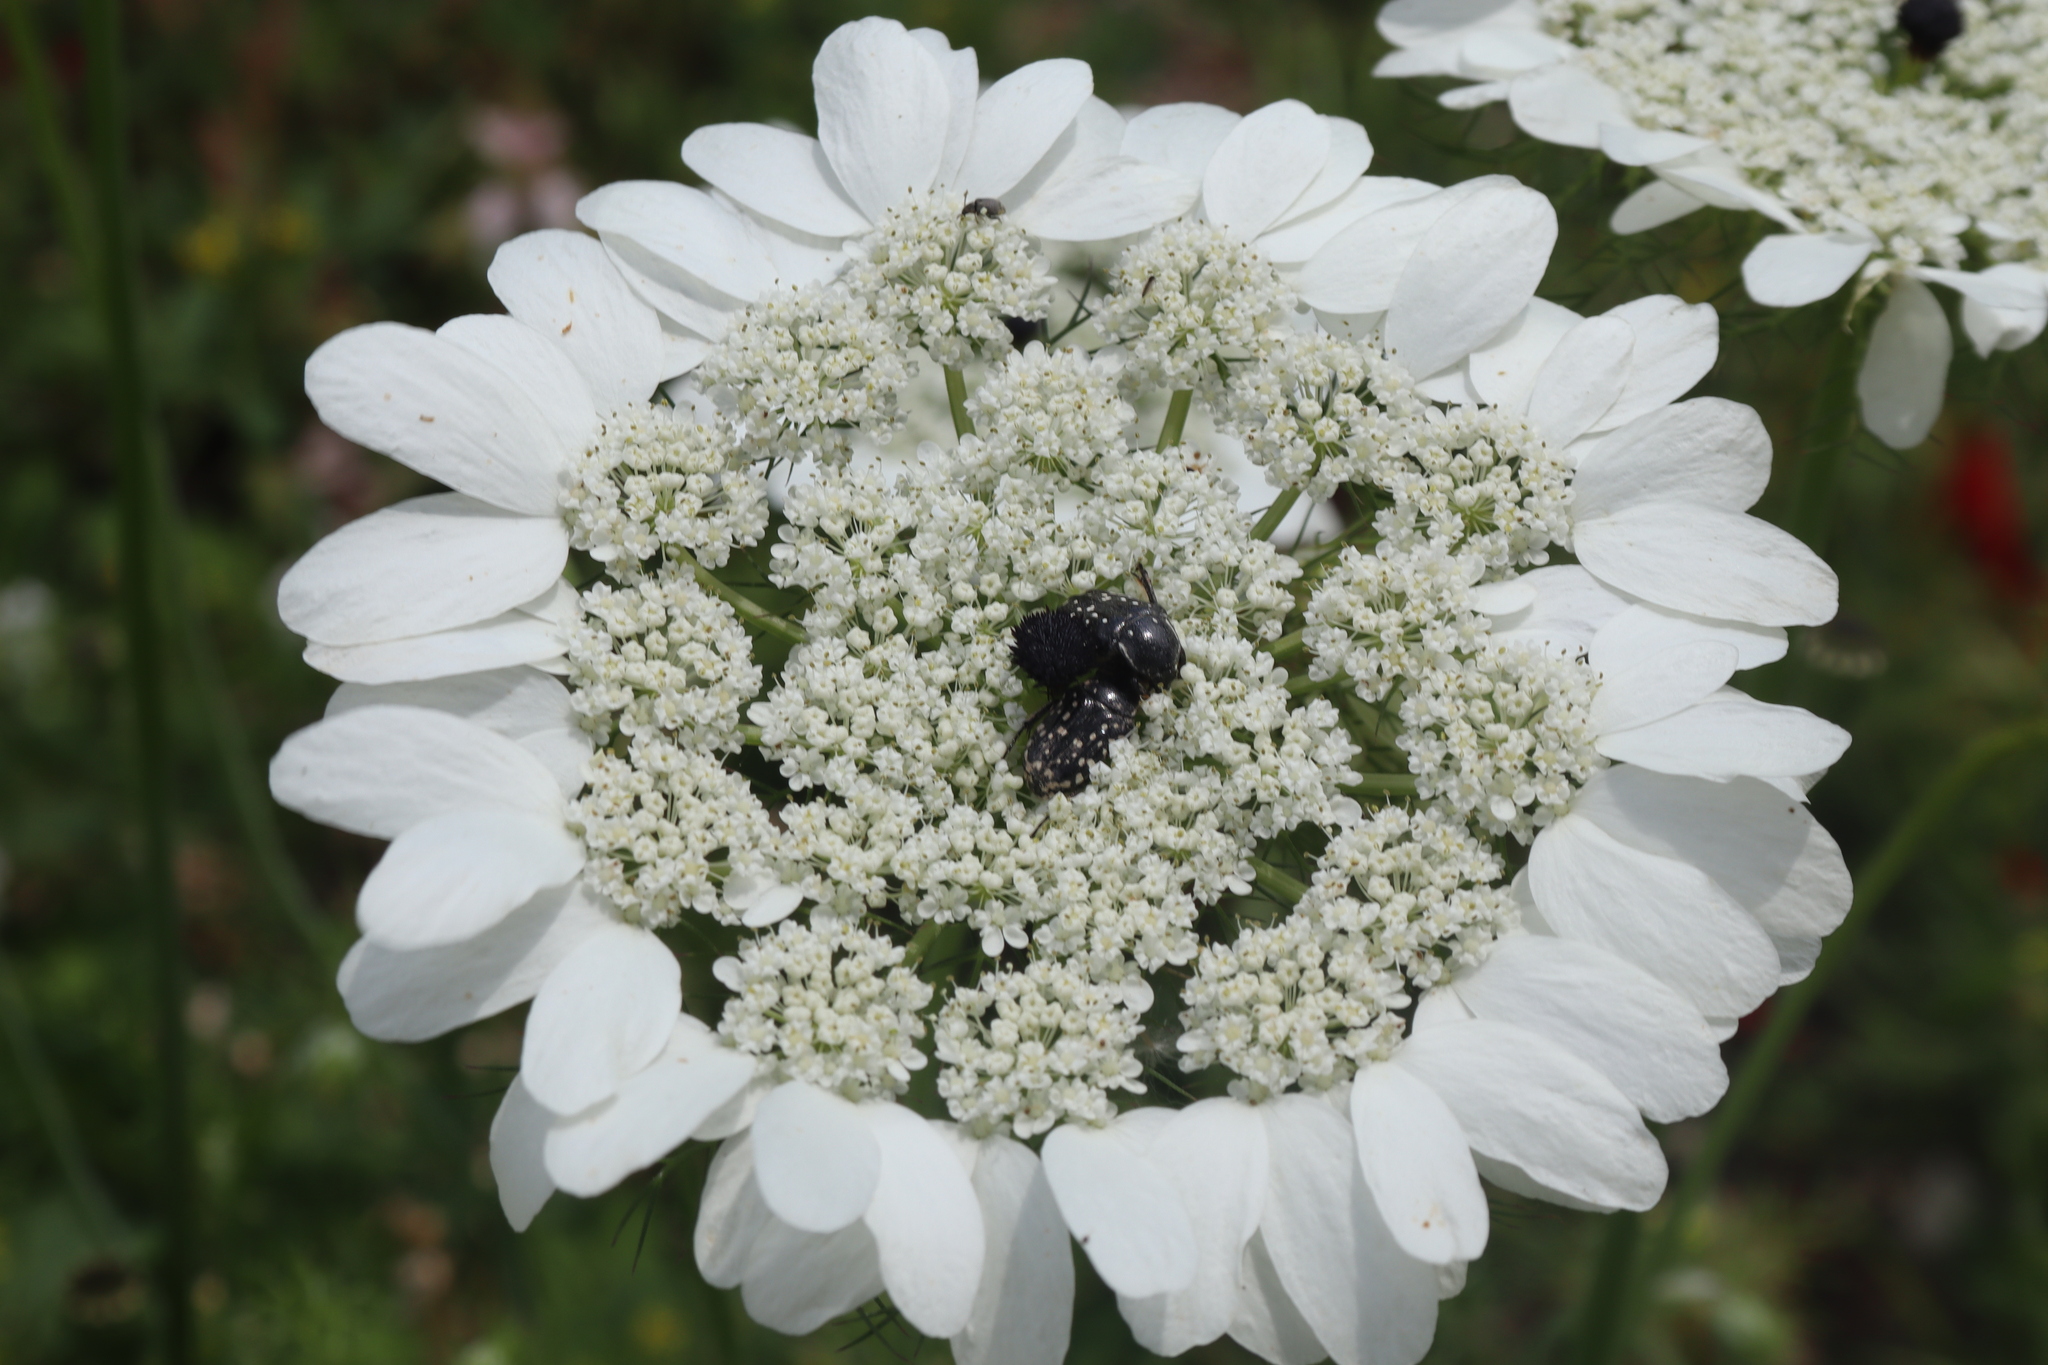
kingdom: Plantae
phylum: Tracheophyta
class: Magnoliopsida
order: Apiales
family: Apiaceae
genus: Artedia
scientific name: Artedia squamata
